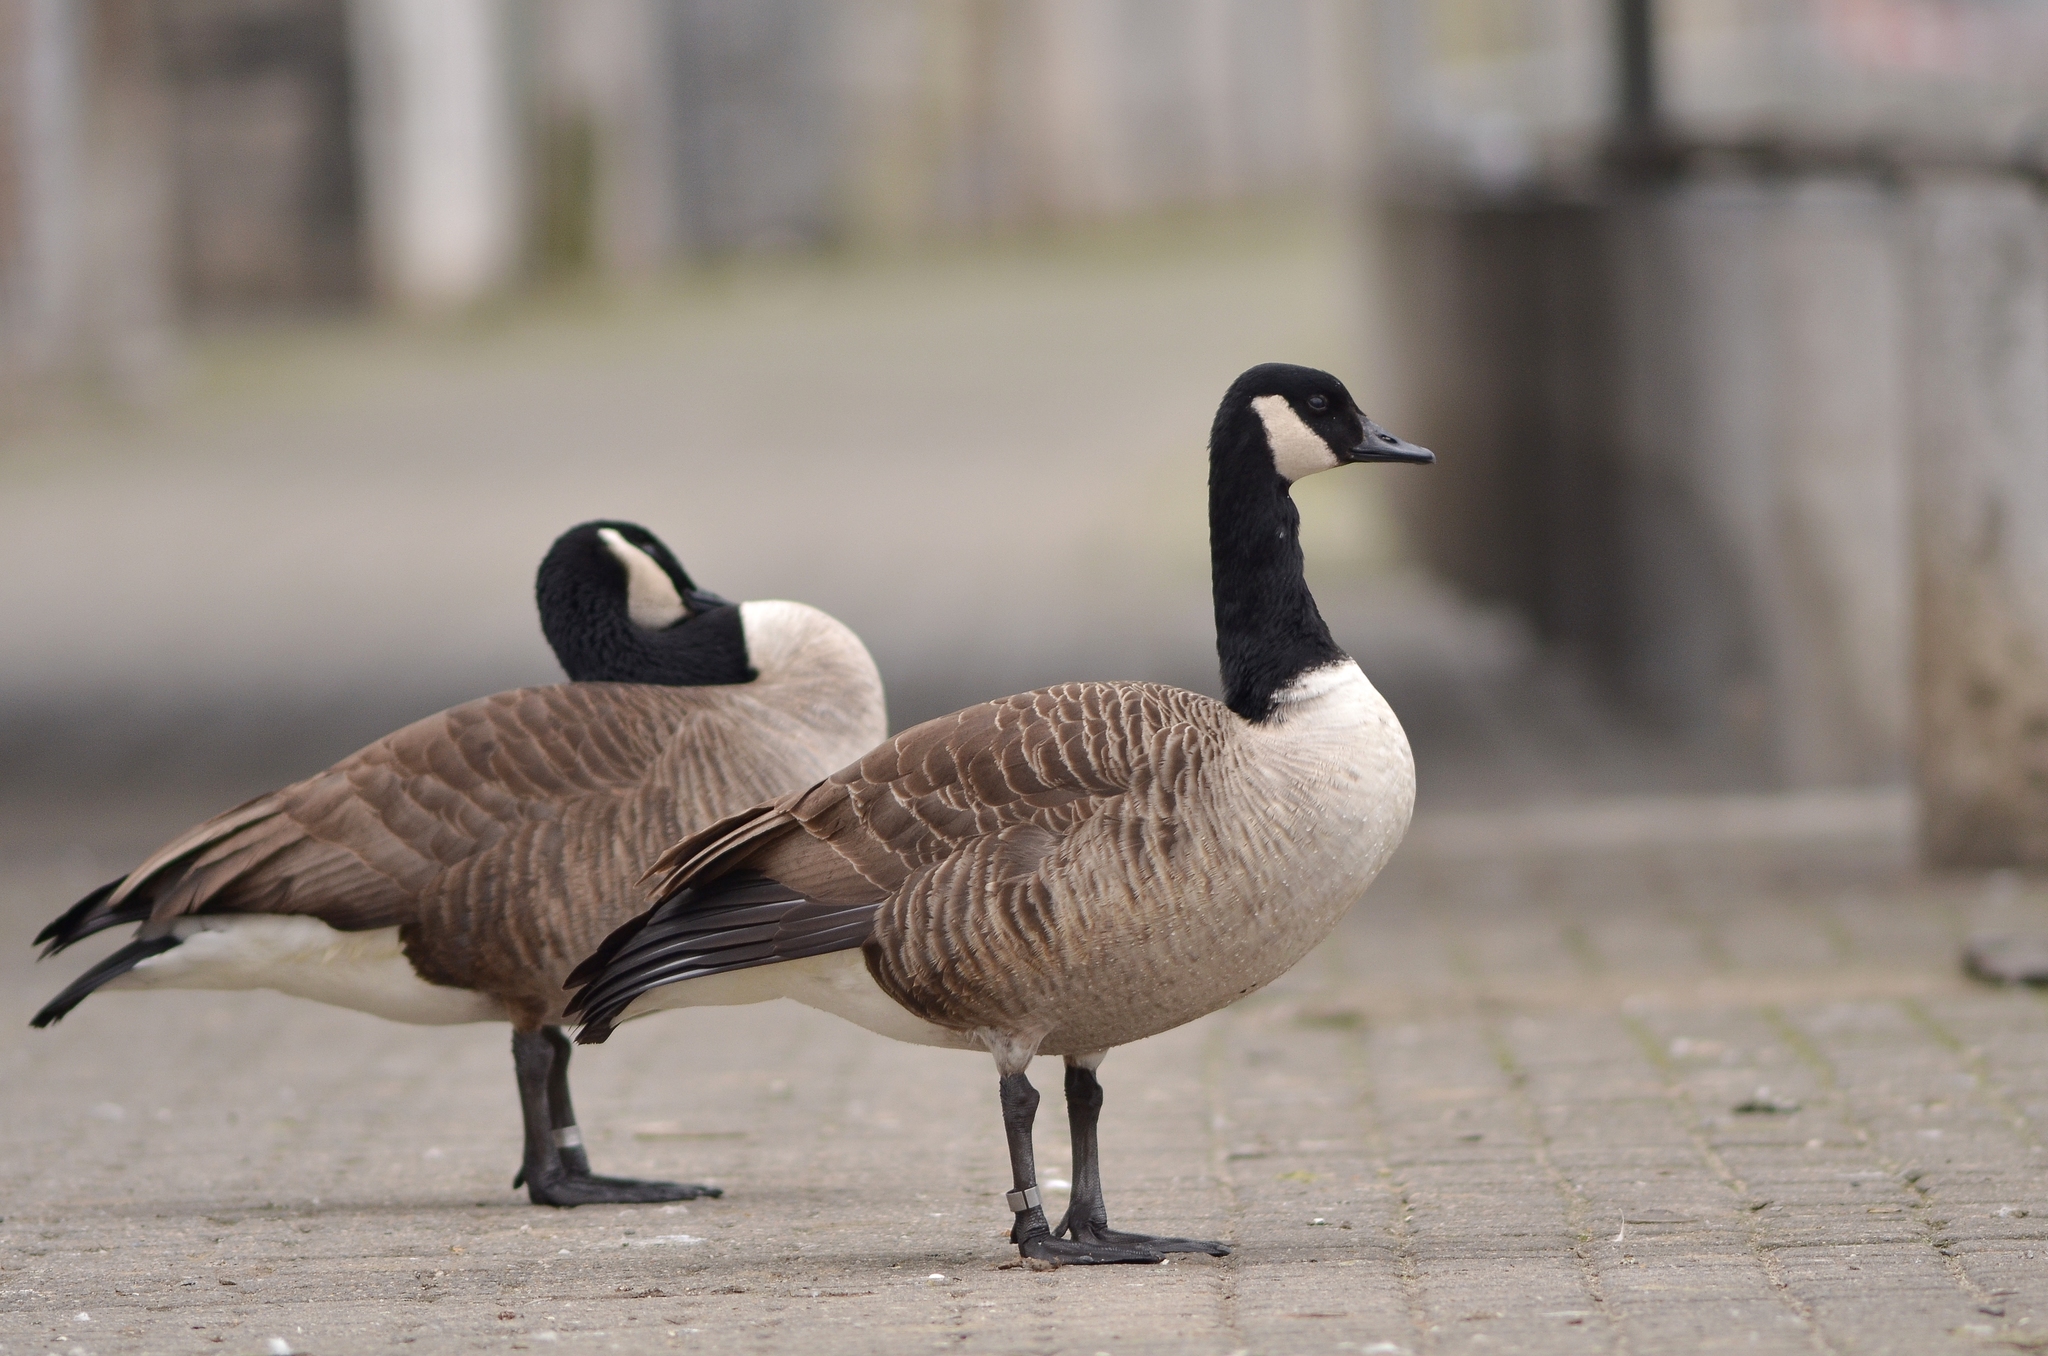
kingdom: Animalia
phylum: Chordata
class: Aves
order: Anseriformes
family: Anatidae
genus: Branta
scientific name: Branta canadensis
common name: Canada goose
